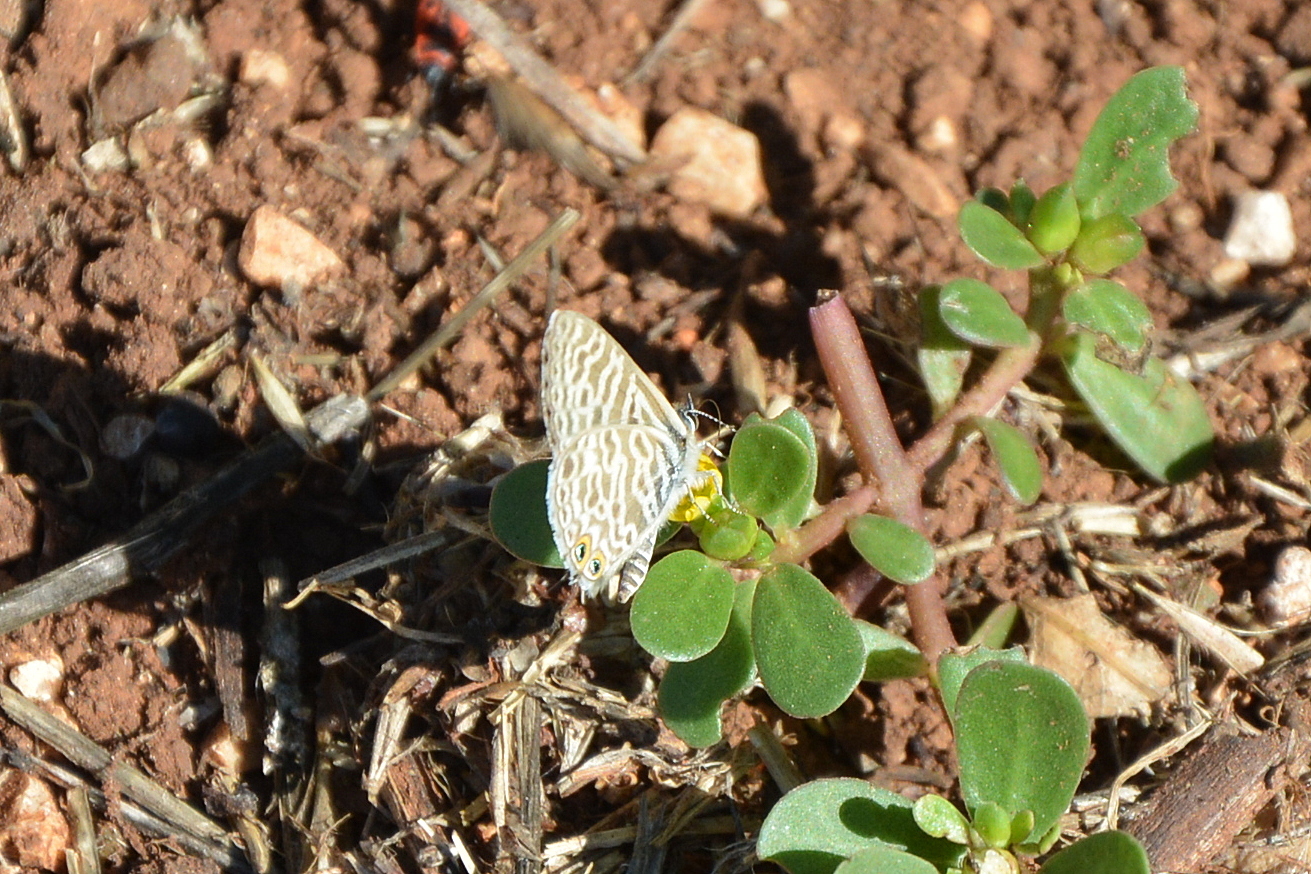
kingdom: Animalia
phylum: Arthropoda
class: Insecta
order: Lepidoptera
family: Lycaenidae
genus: Leptotes
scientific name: Leptotes pirithous
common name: Lang's short-tailed blue
